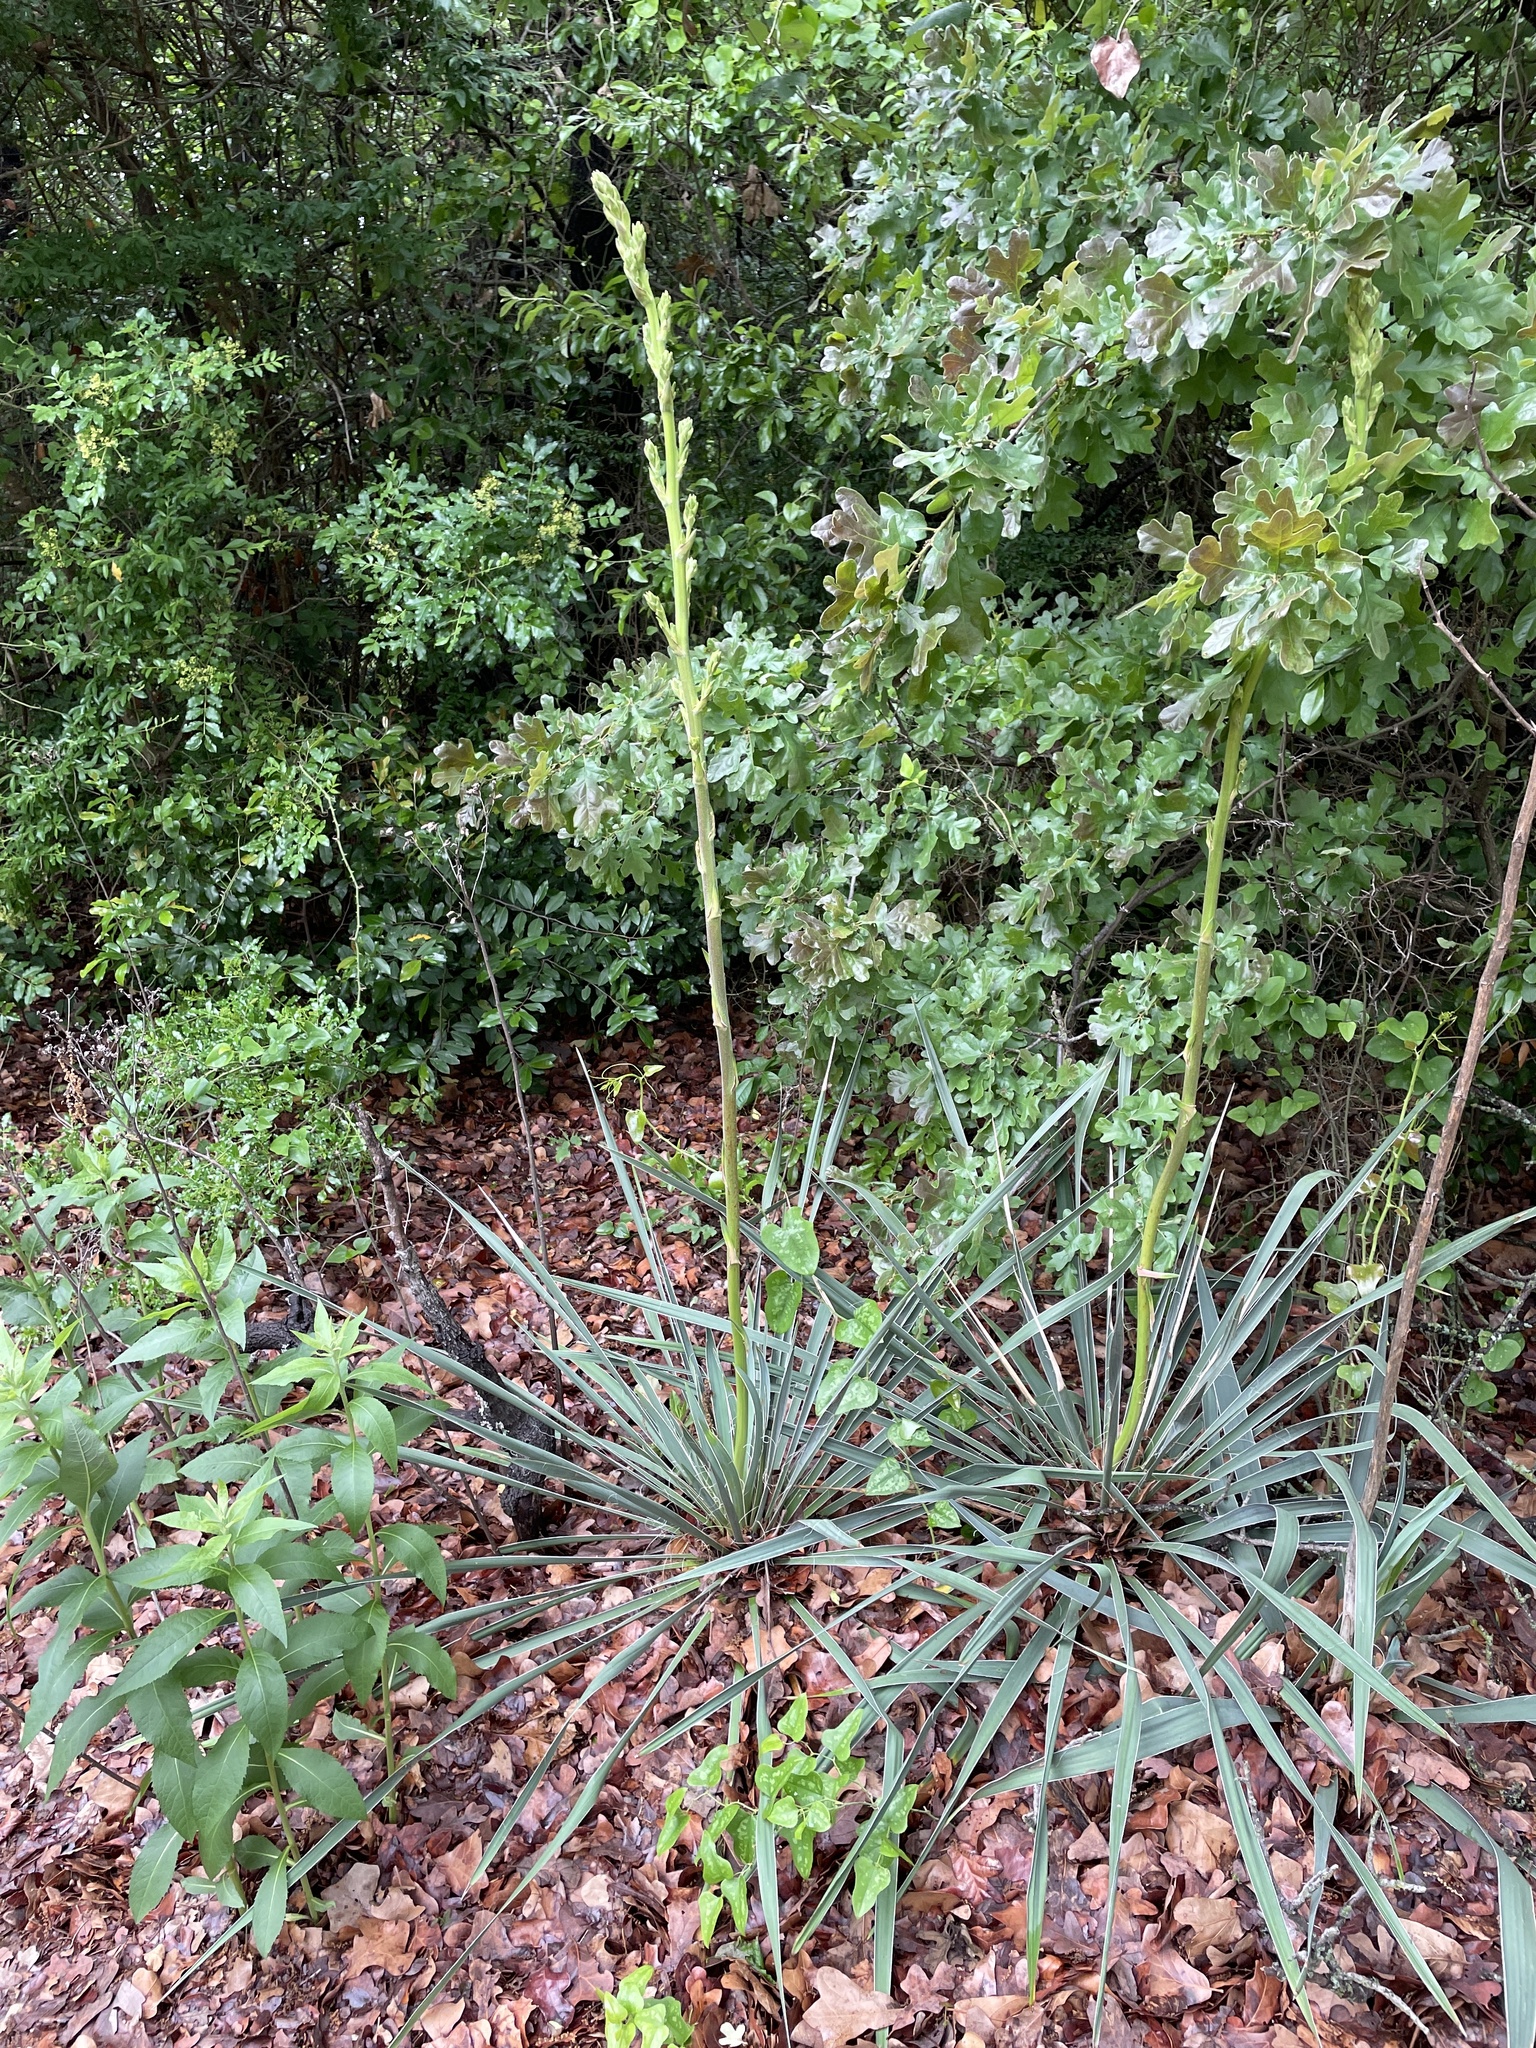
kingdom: Plantae
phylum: Tracheophyta
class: Liliopsida
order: Asparagales
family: Asparagaceae
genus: Yucca
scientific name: Yucca necopina
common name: Glen rose yucca
